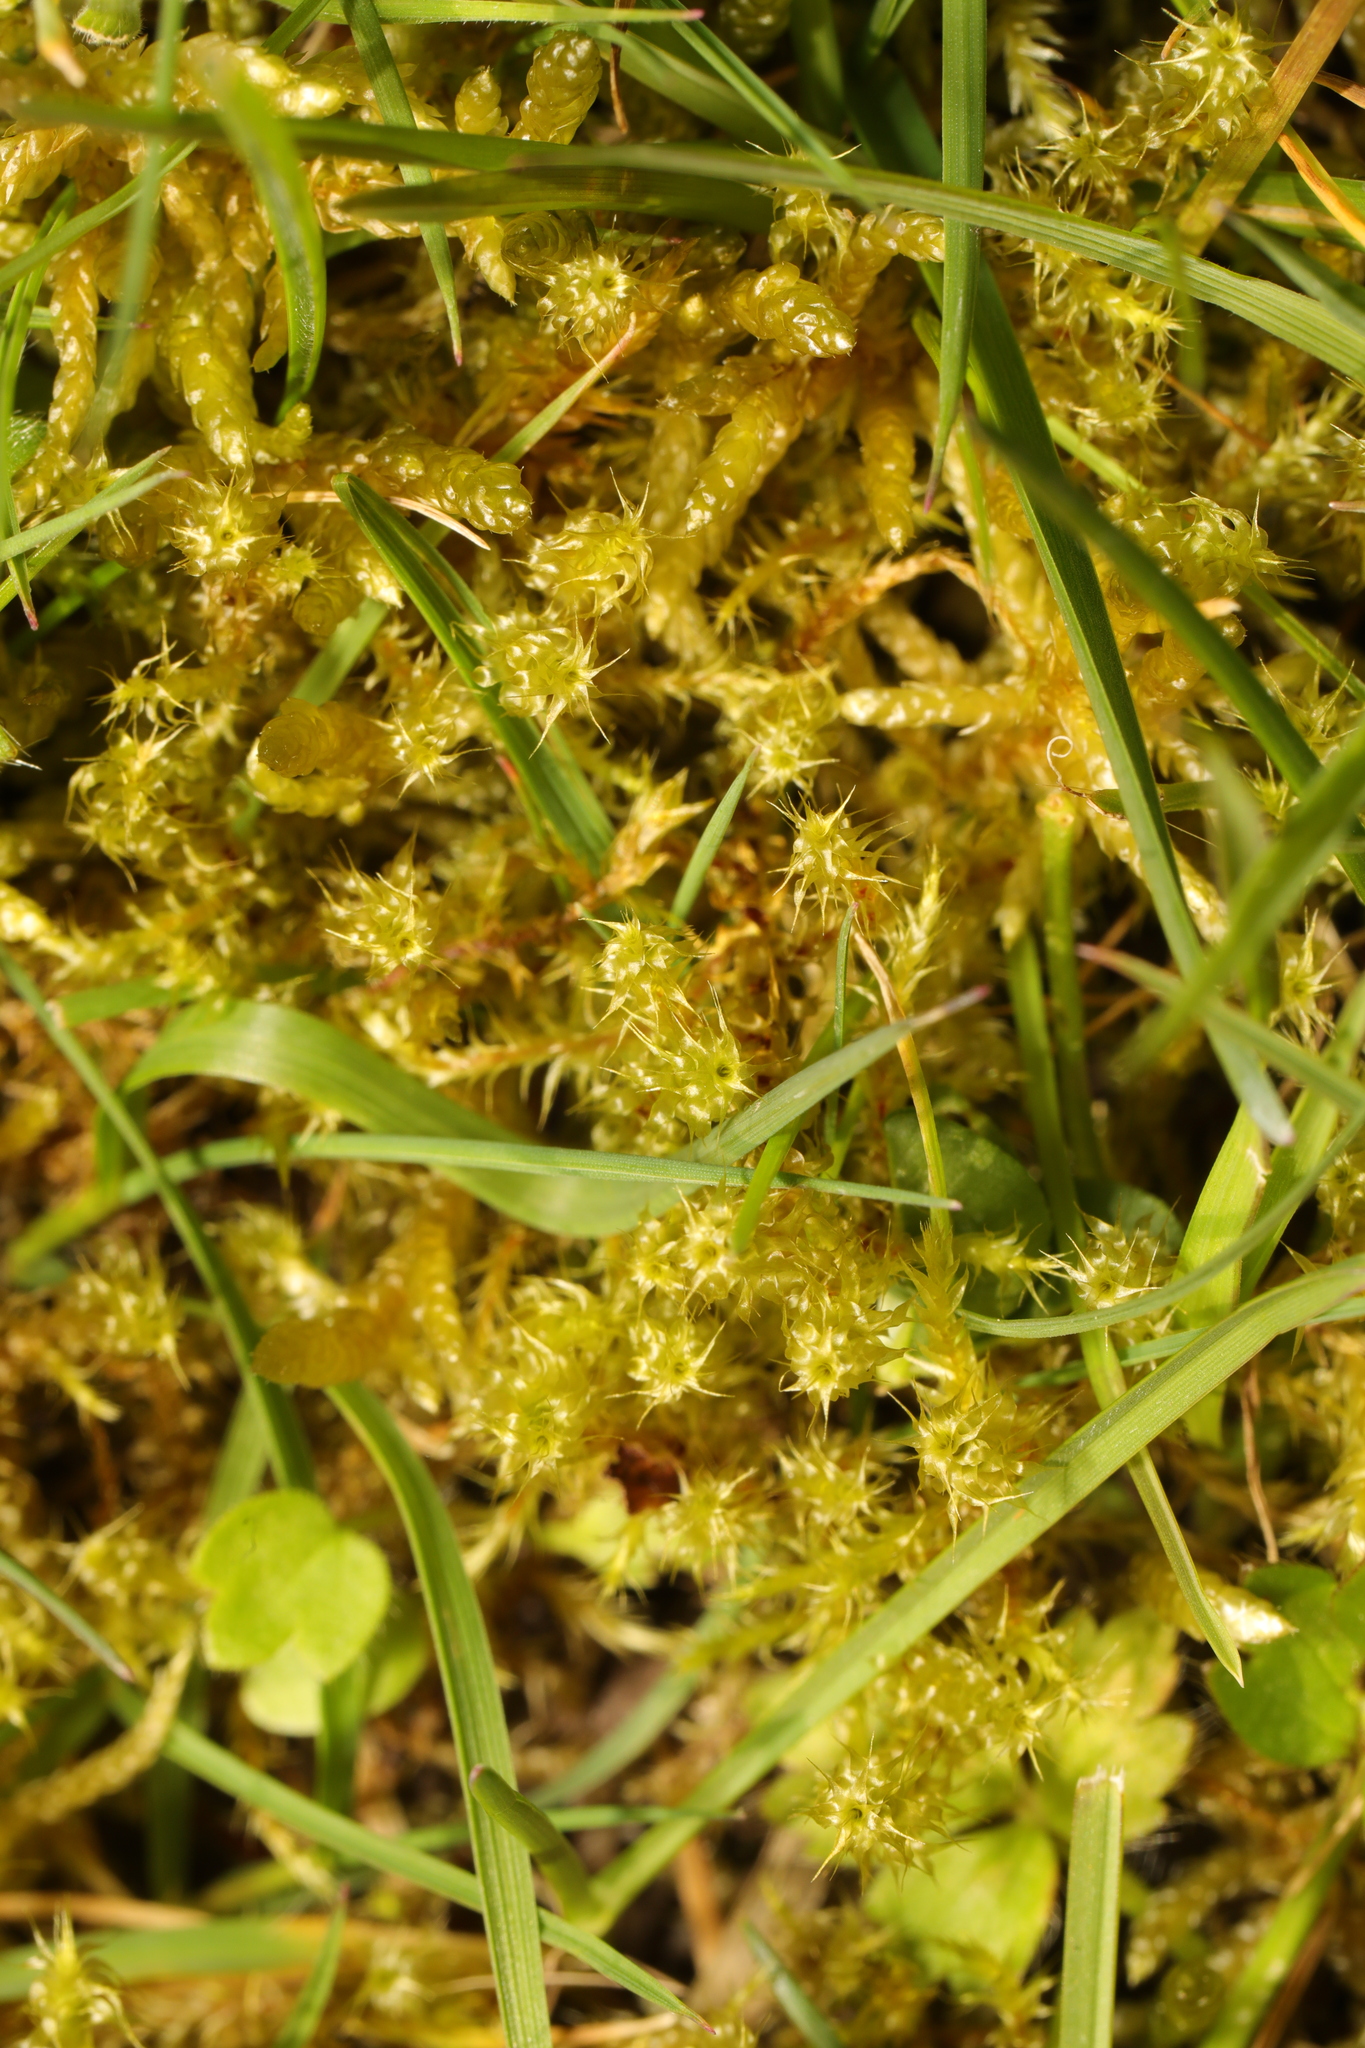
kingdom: Plantae
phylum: Bryophyta
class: Bryopsida
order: Hypnales
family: Hylocomiaceae
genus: Rhytidiadelphus
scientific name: Rhytidiadelphus squarrosus
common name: Springy turf-moss
